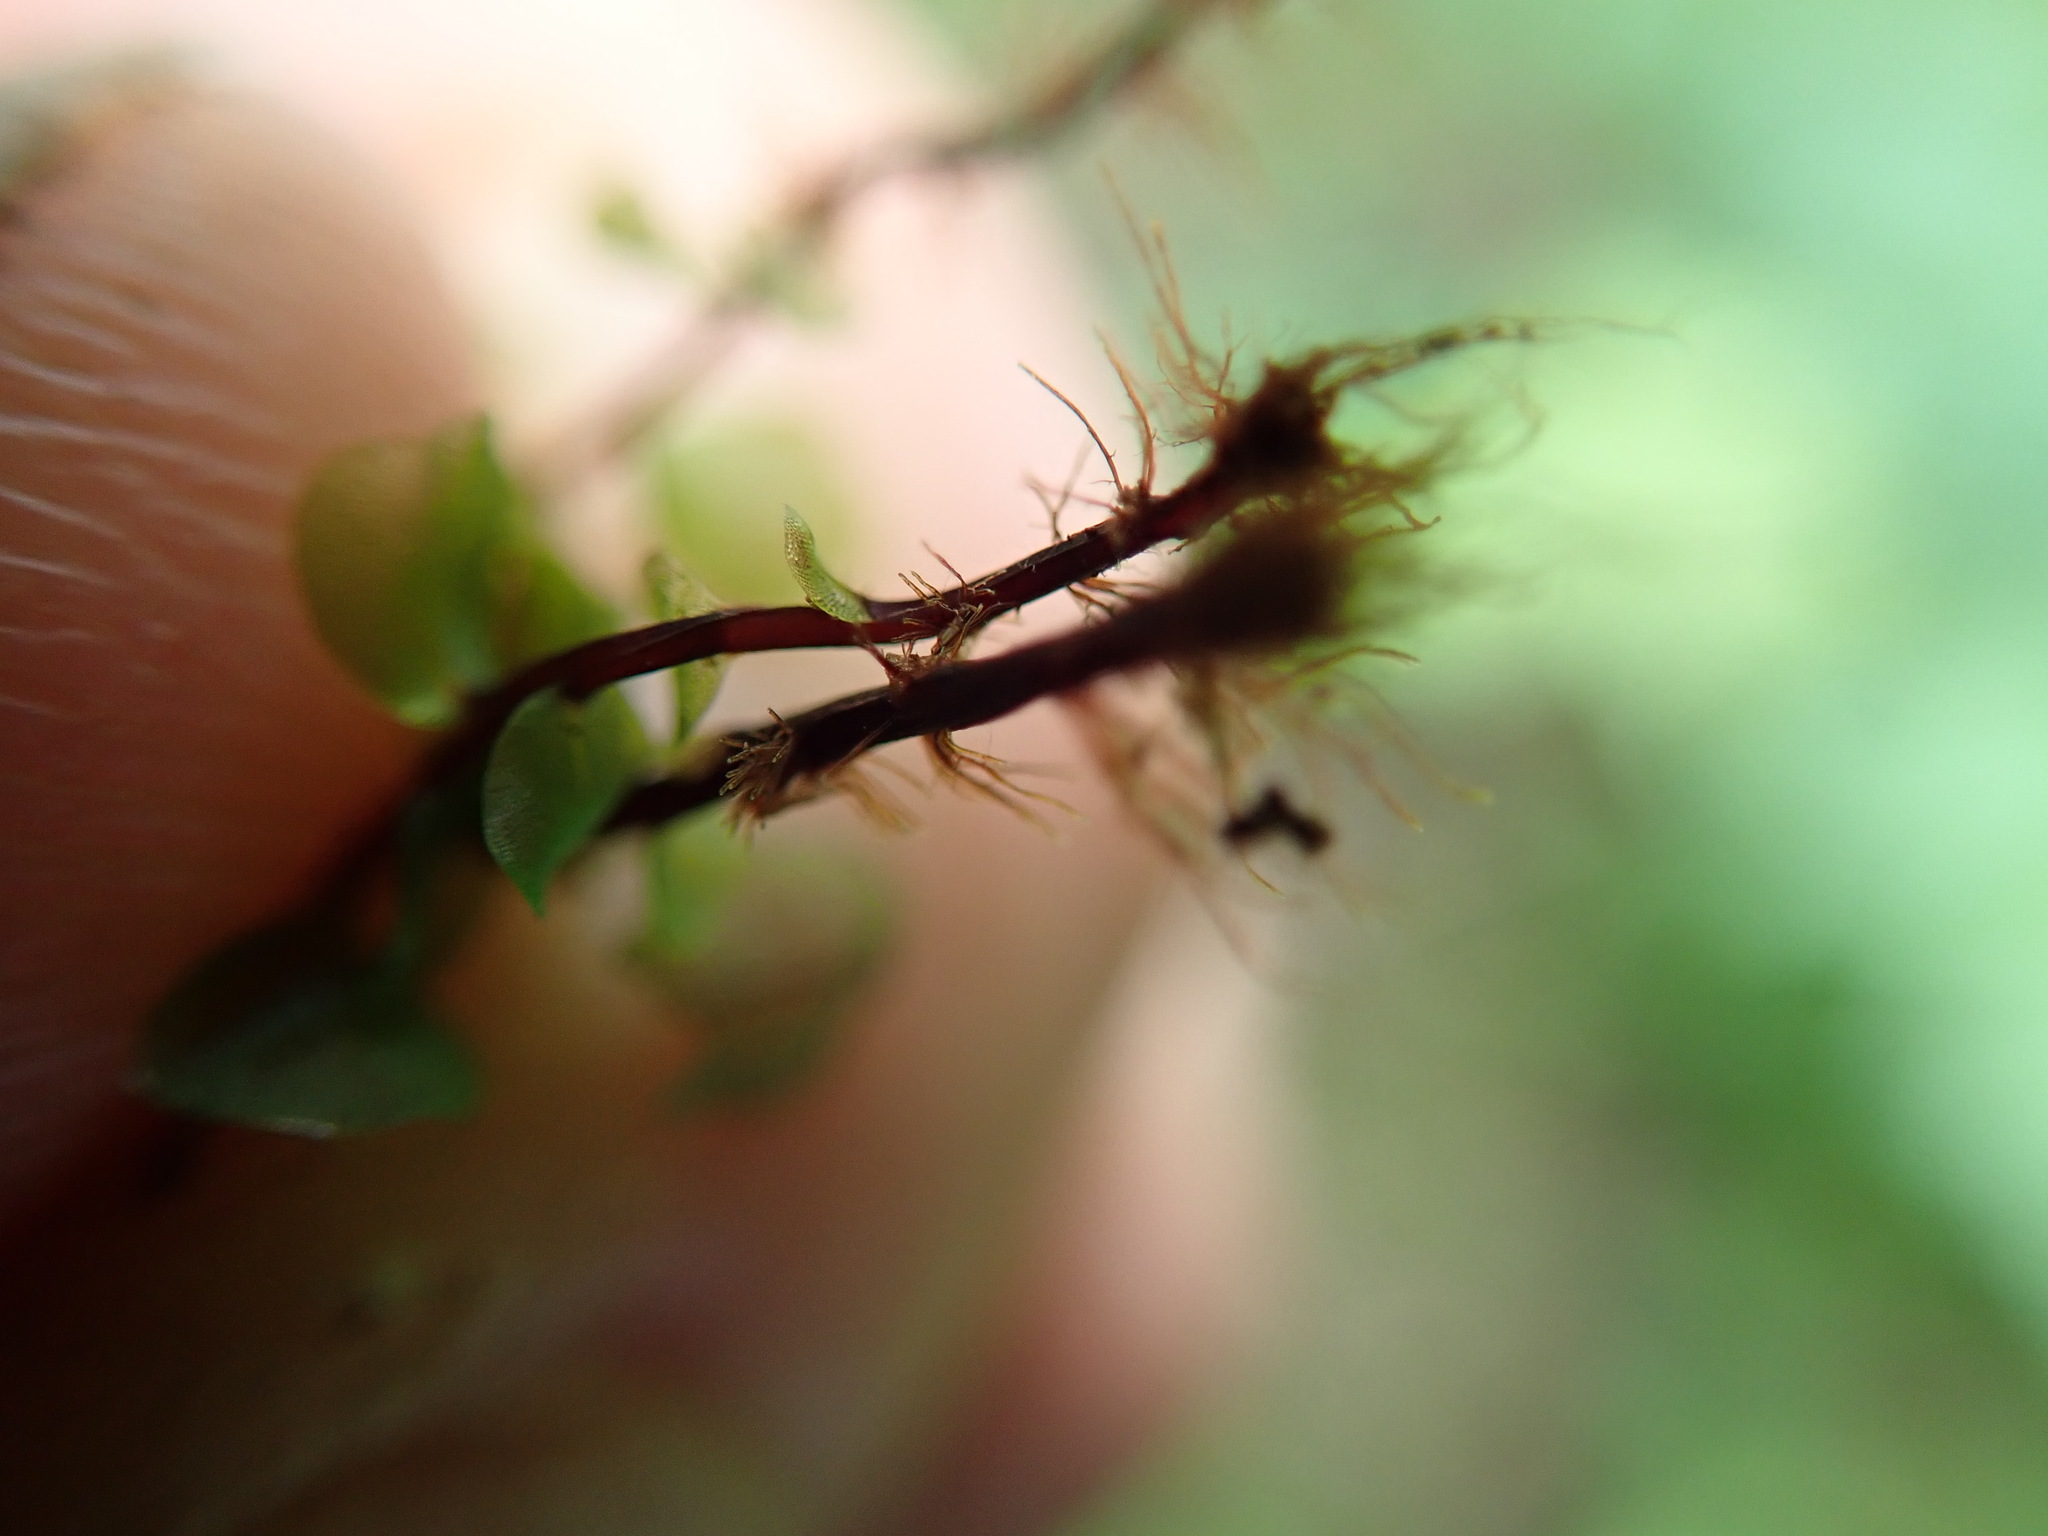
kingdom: Plantae
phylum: Bryophyta
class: Bryopsida
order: Bryales
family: Mniaceae
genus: Rhizomnium
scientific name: Rhizomnium magnifolium
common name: Large-leaved leafy moss
